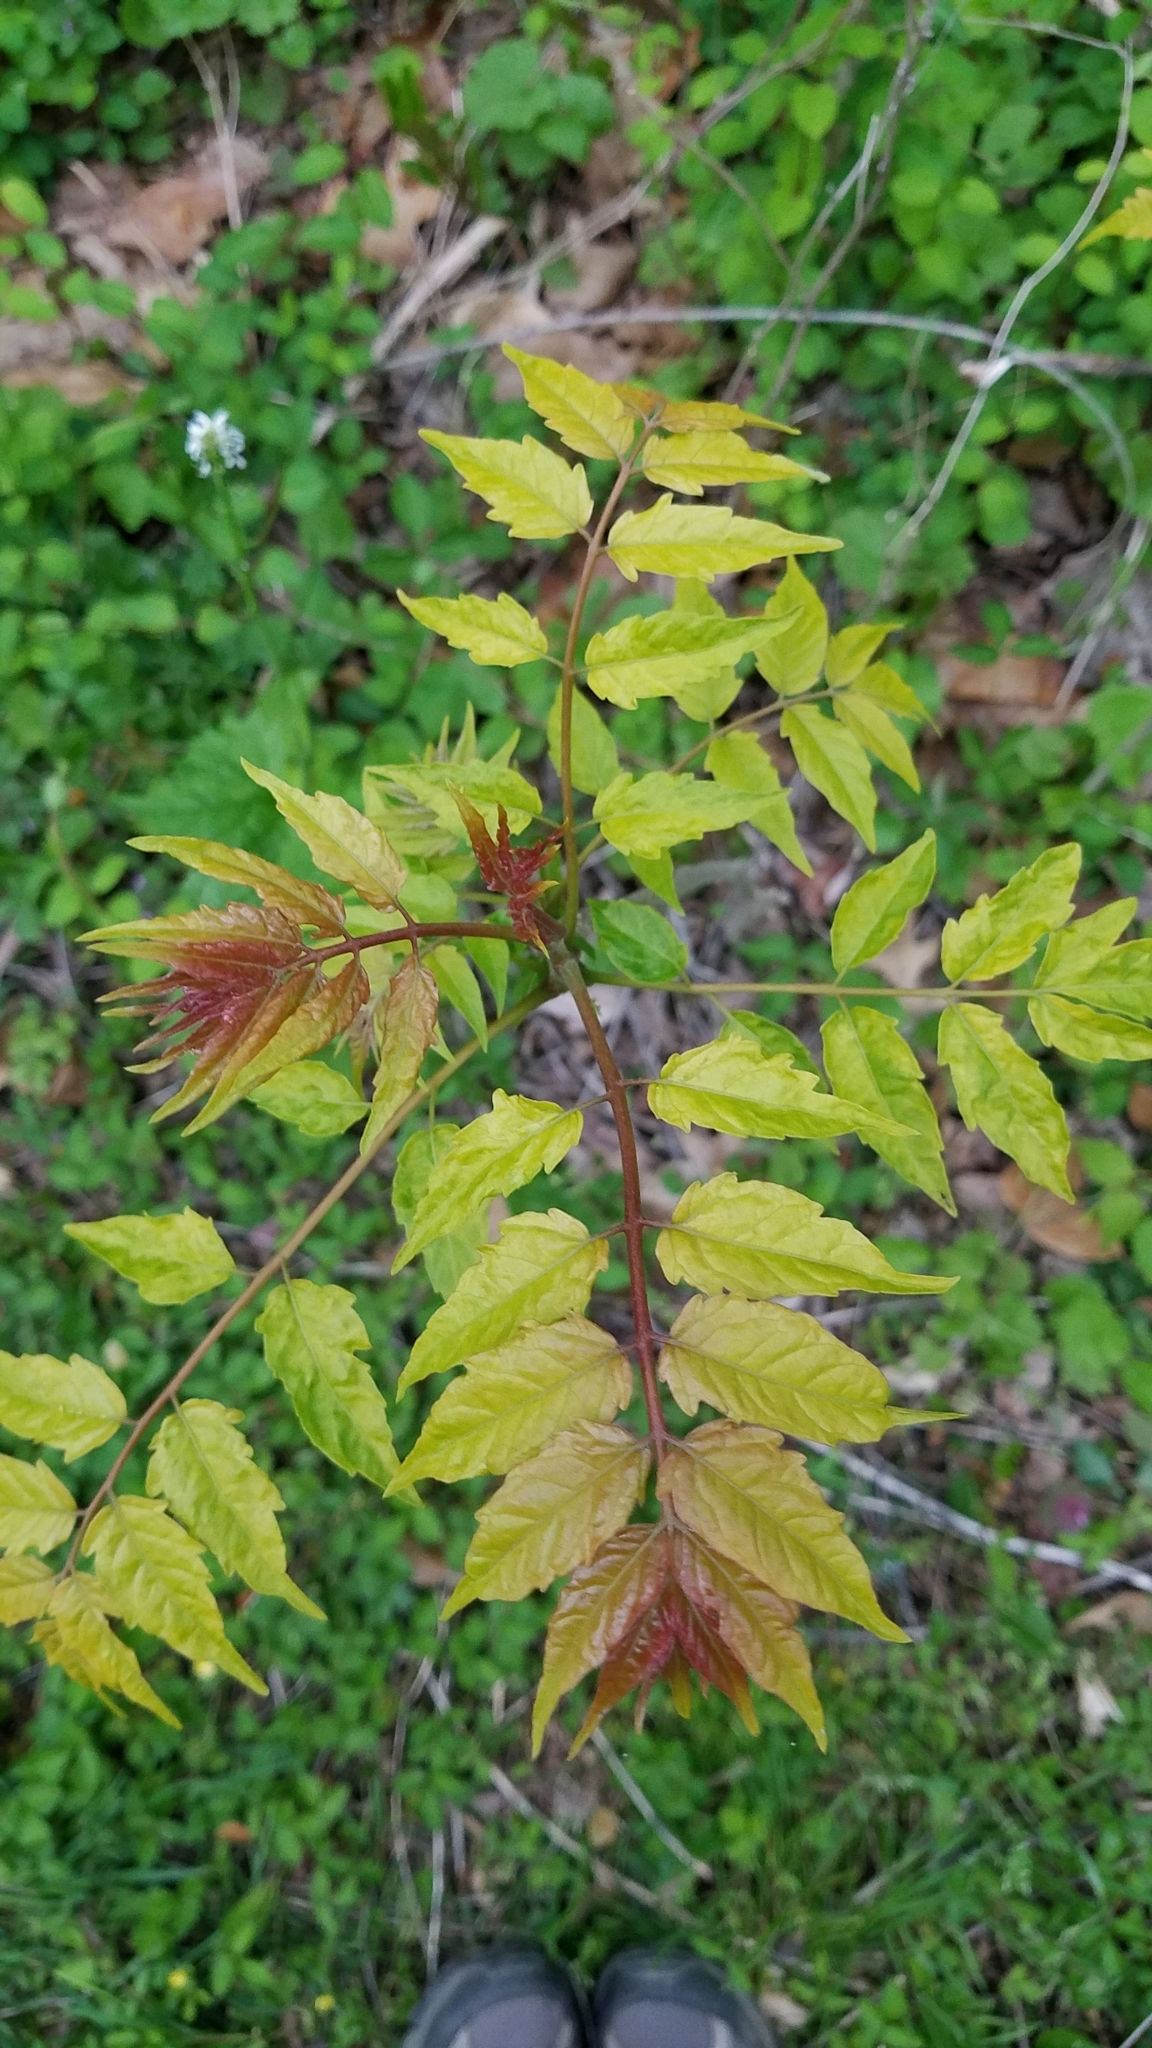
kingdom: Plantae
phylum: Tracheophyta
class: Magnoliopsida
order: Sapindales
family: Simaroubaceae
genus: Ailanthus
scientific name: Ailanthus altissima
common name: Tree-of-heaven
